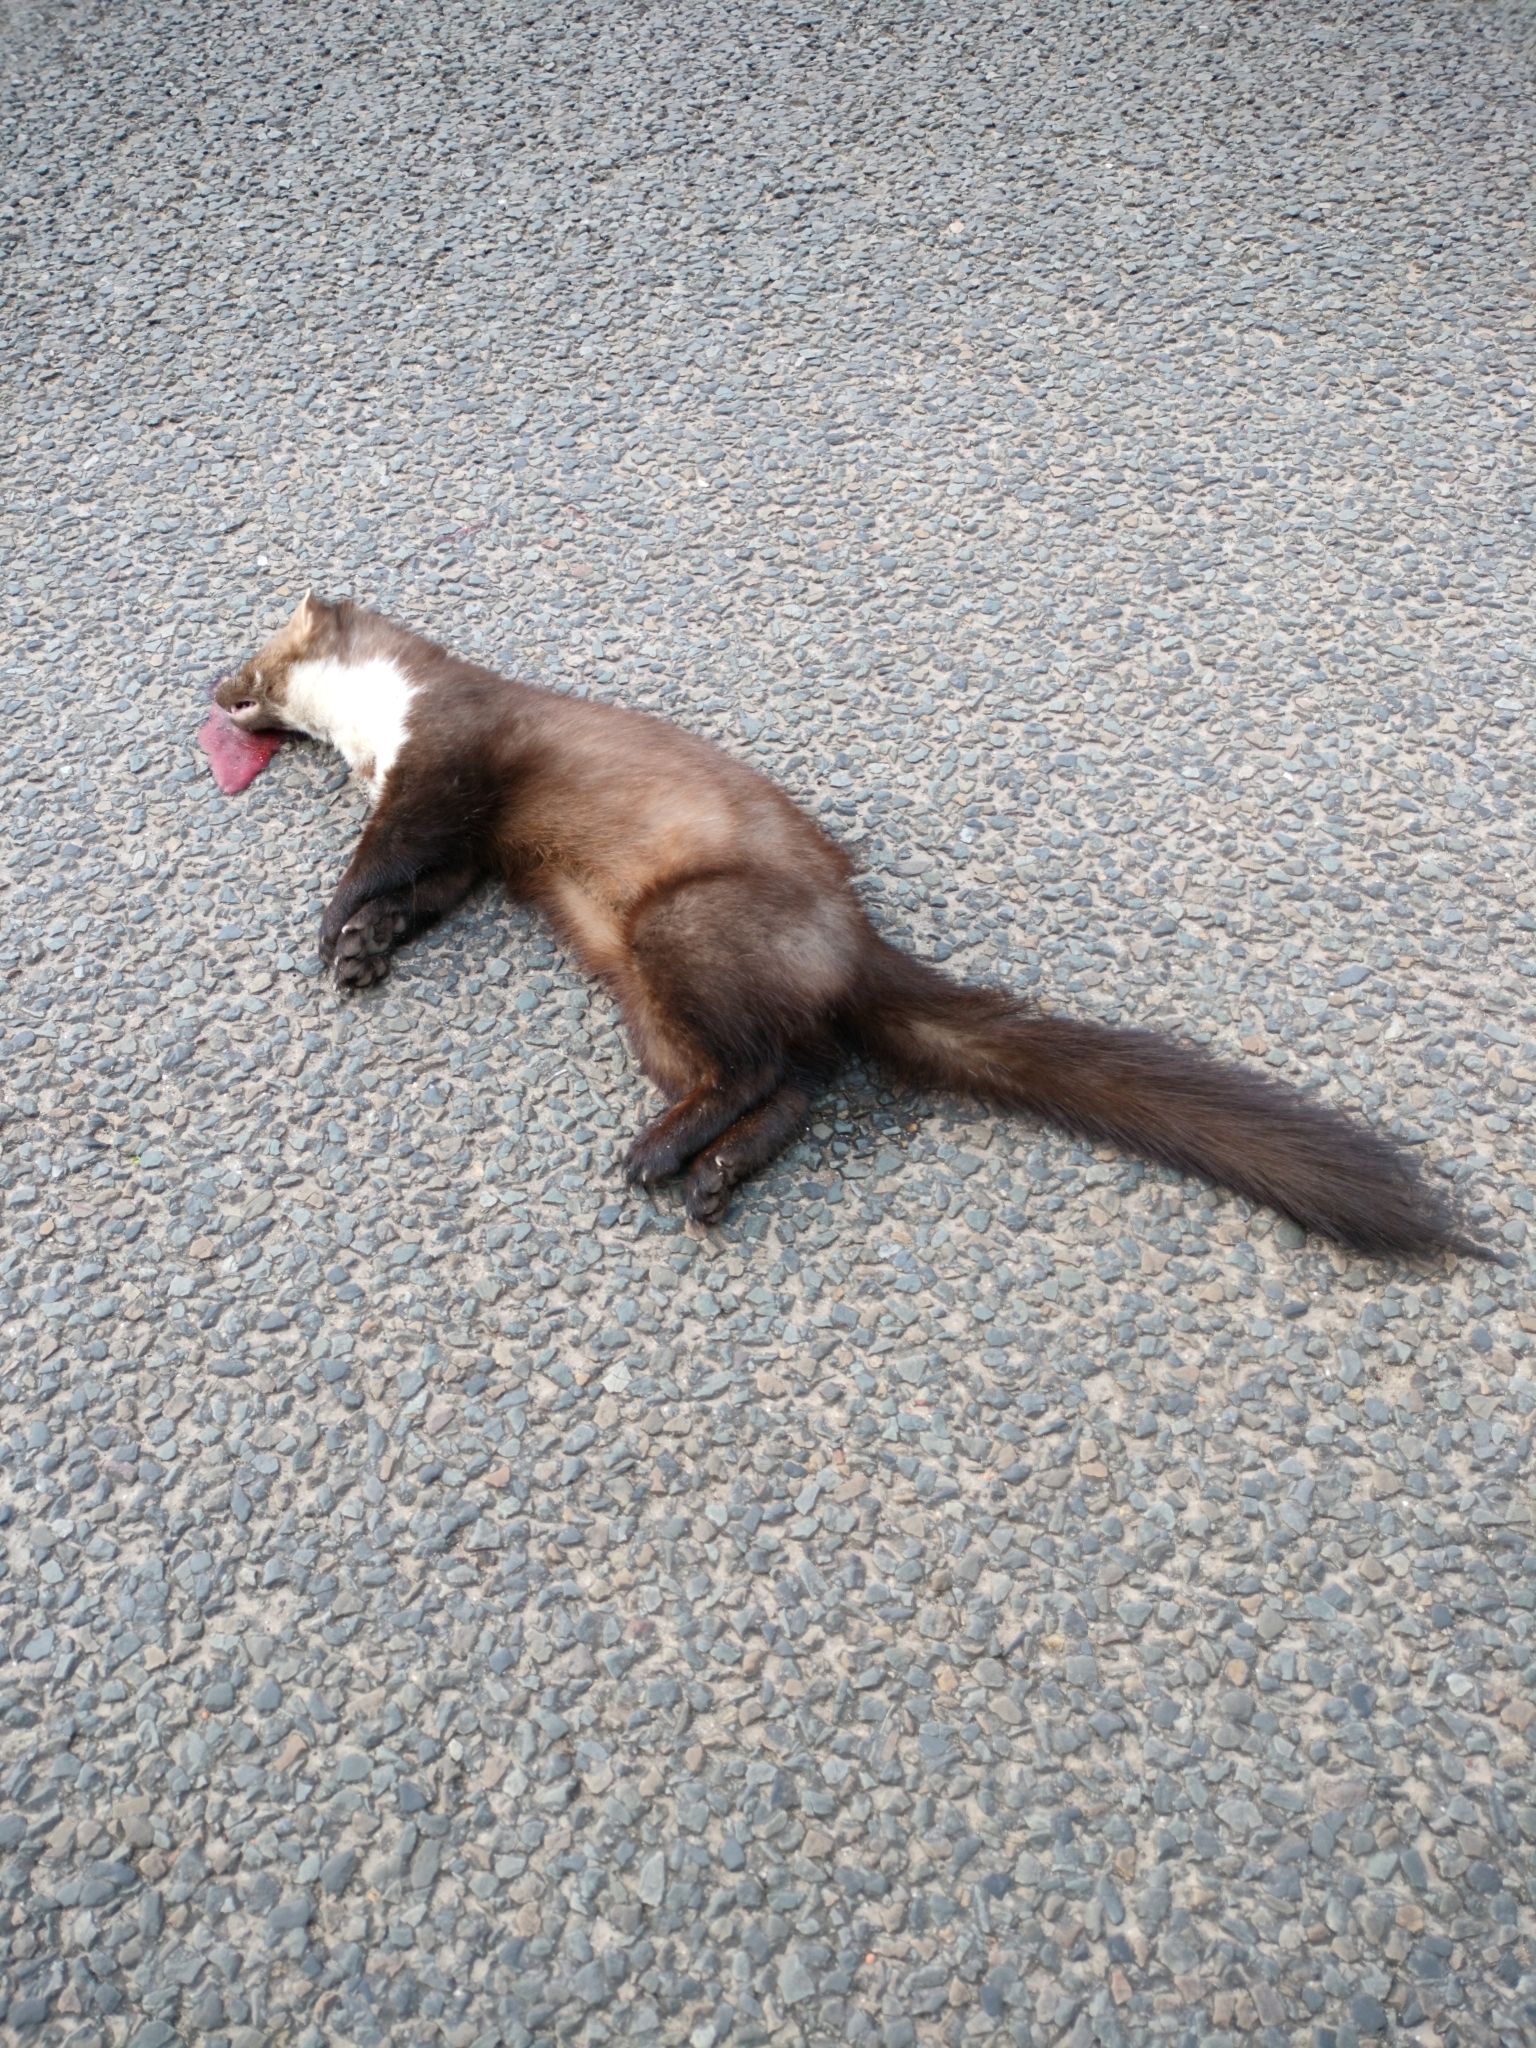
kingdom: Animalia
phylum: Chordata
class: Mammalia
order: Carnivora
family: Mustelidae
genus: Martes
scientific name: Martes foina
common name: Beech marten
